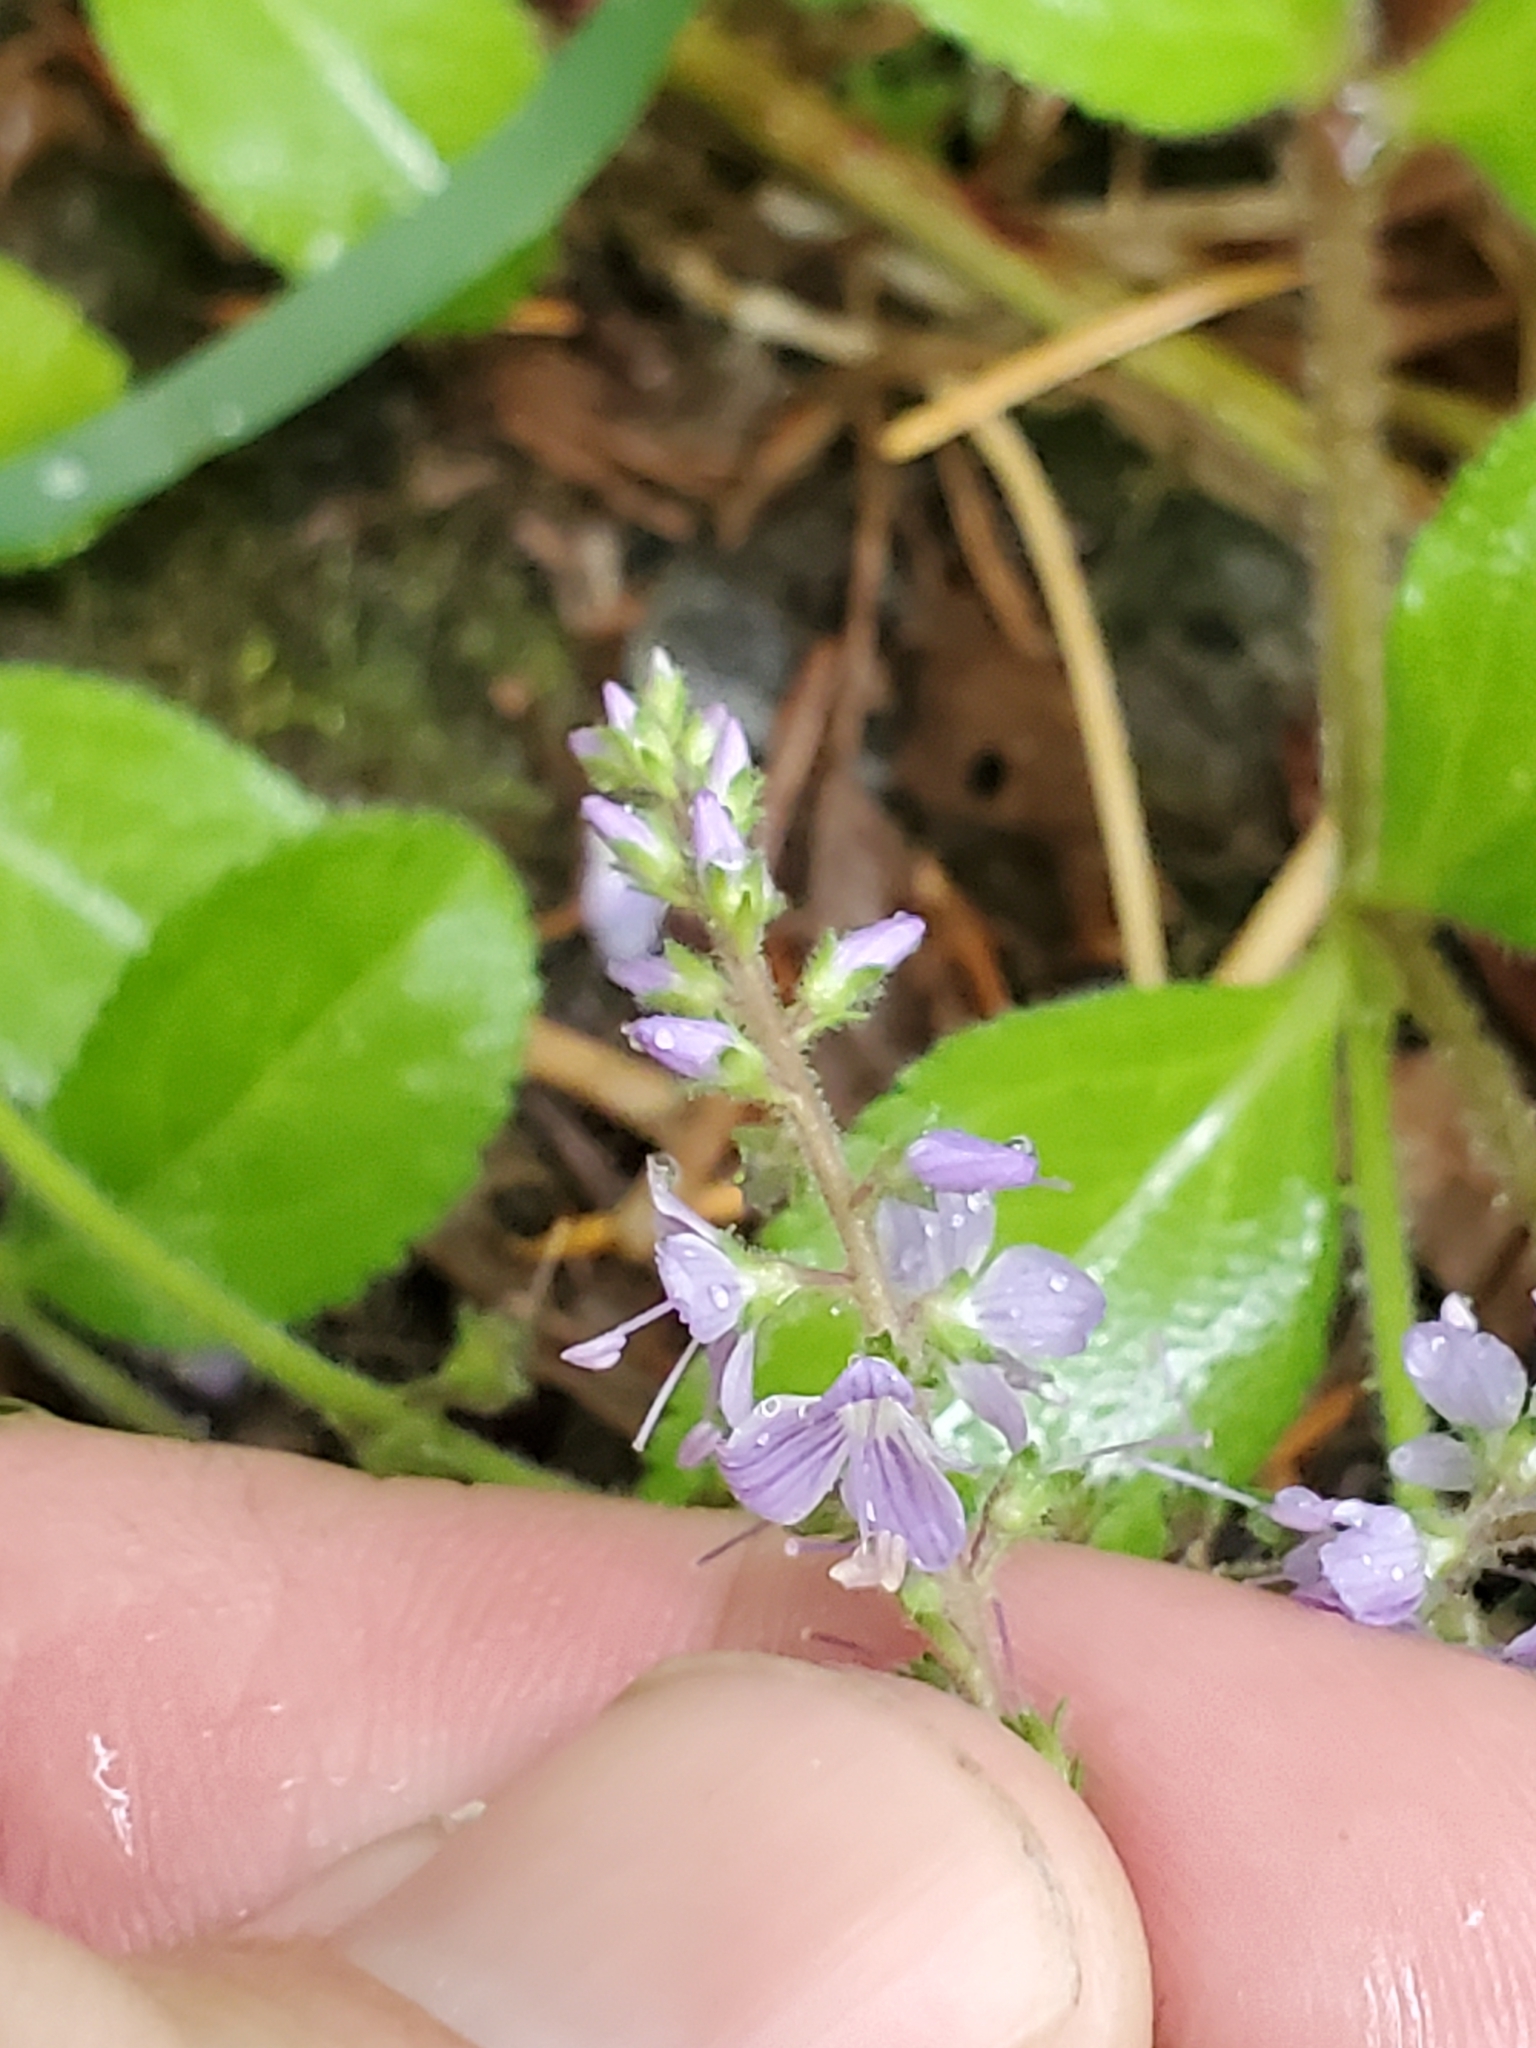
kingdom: Plantae
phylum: Tracheophyta
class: Magnoliopsida
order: Lamiales
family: Plantaginaceae
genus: Veronica
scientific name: Veronica officinalis
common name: Common speedwell
